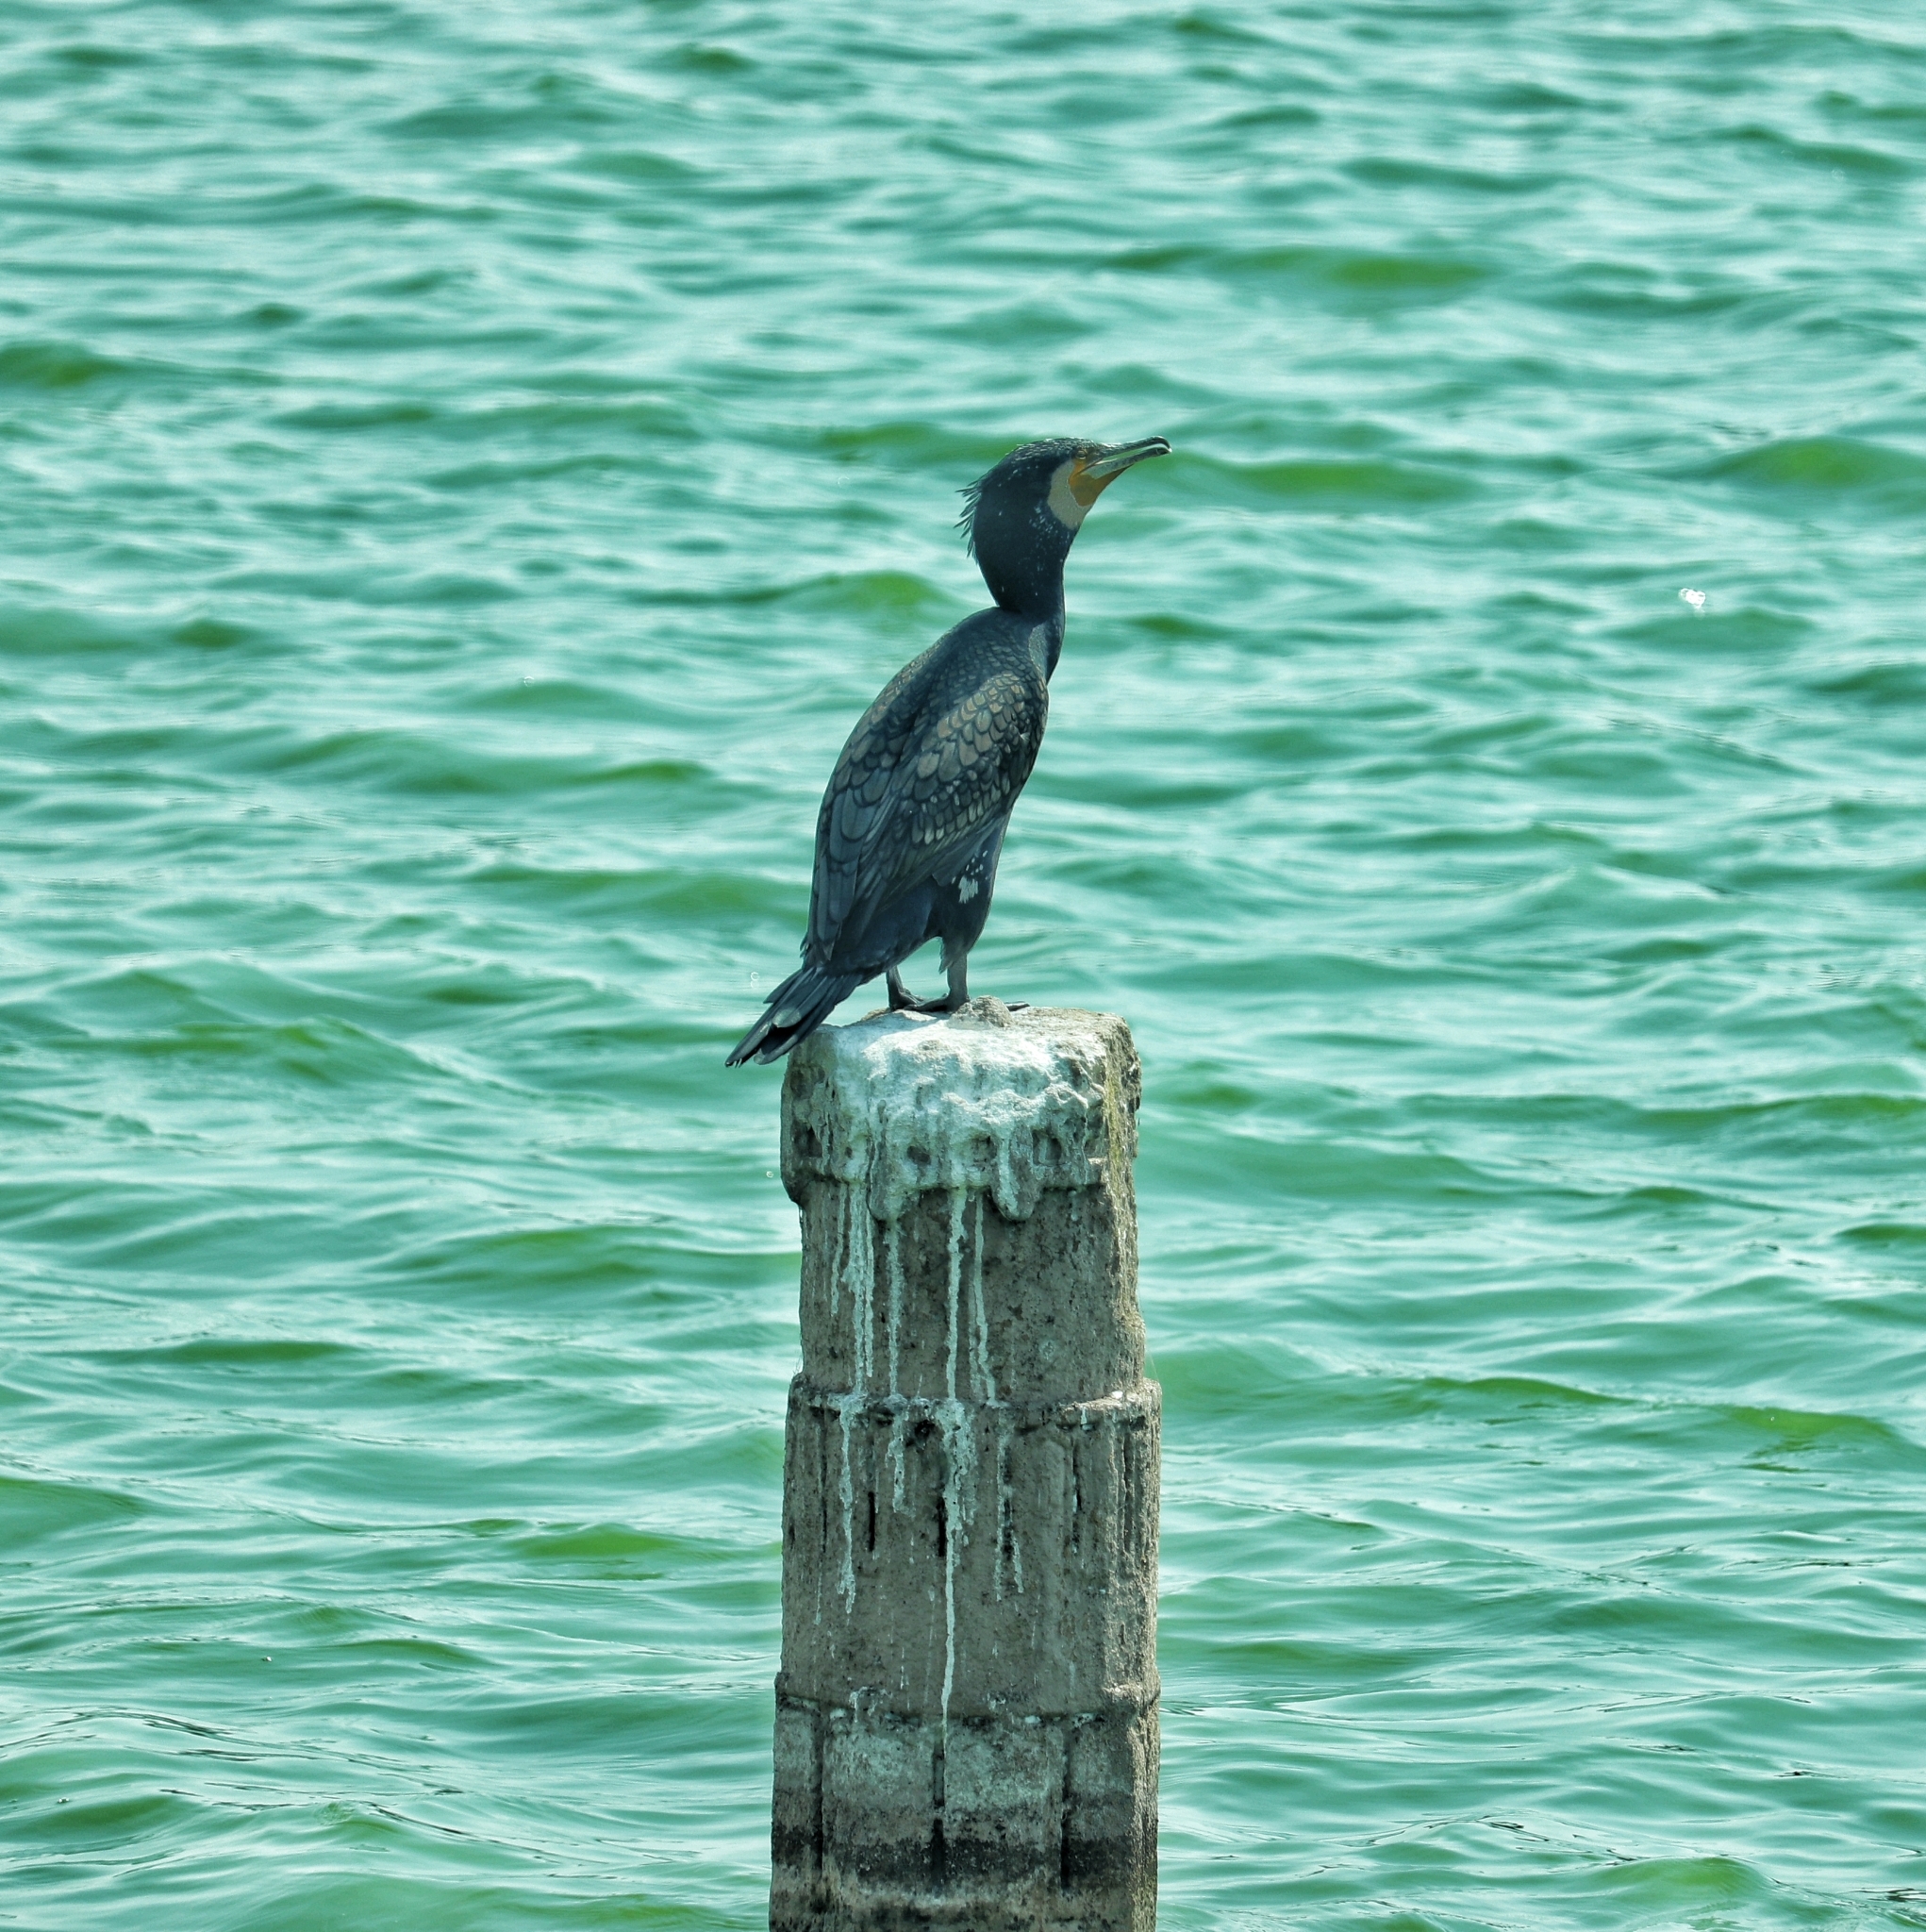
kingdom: Animalia
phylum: Chordata
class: Aves
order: Suliformes
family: Phalacrocoracidae
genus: Phalacrocorax
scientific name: Phalacrocorax carbo
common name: Great cormorant
